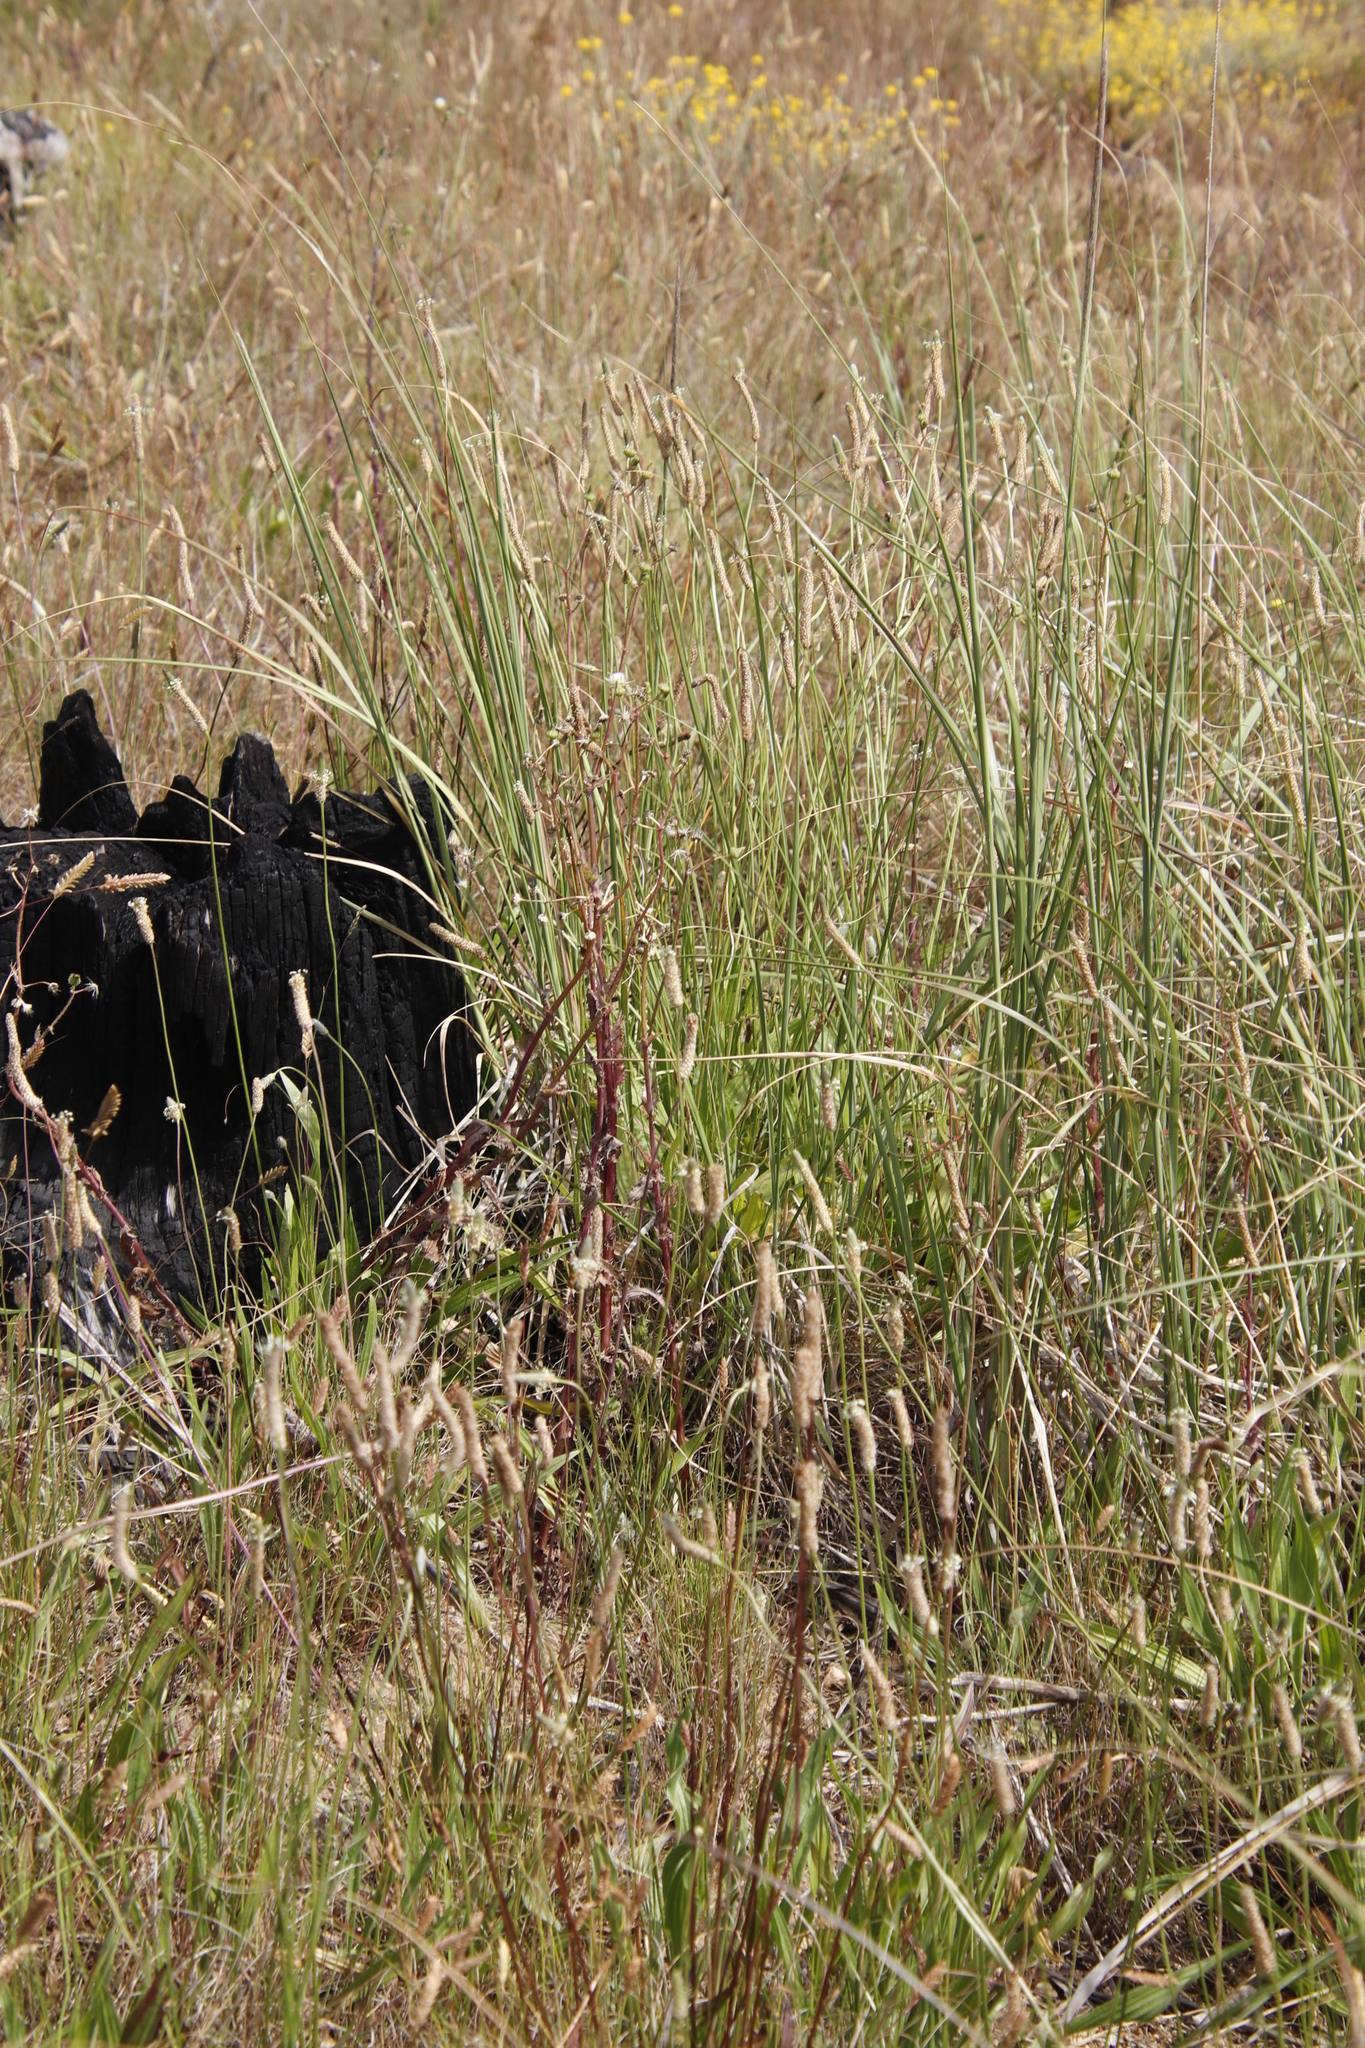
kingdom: Plantae
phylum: Tracheophyta
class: Magnoliopsida
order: Lamiales
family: Plantaginaceae
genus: Plantago
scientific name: Plantago lanceolata
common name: Ribwort plantain
